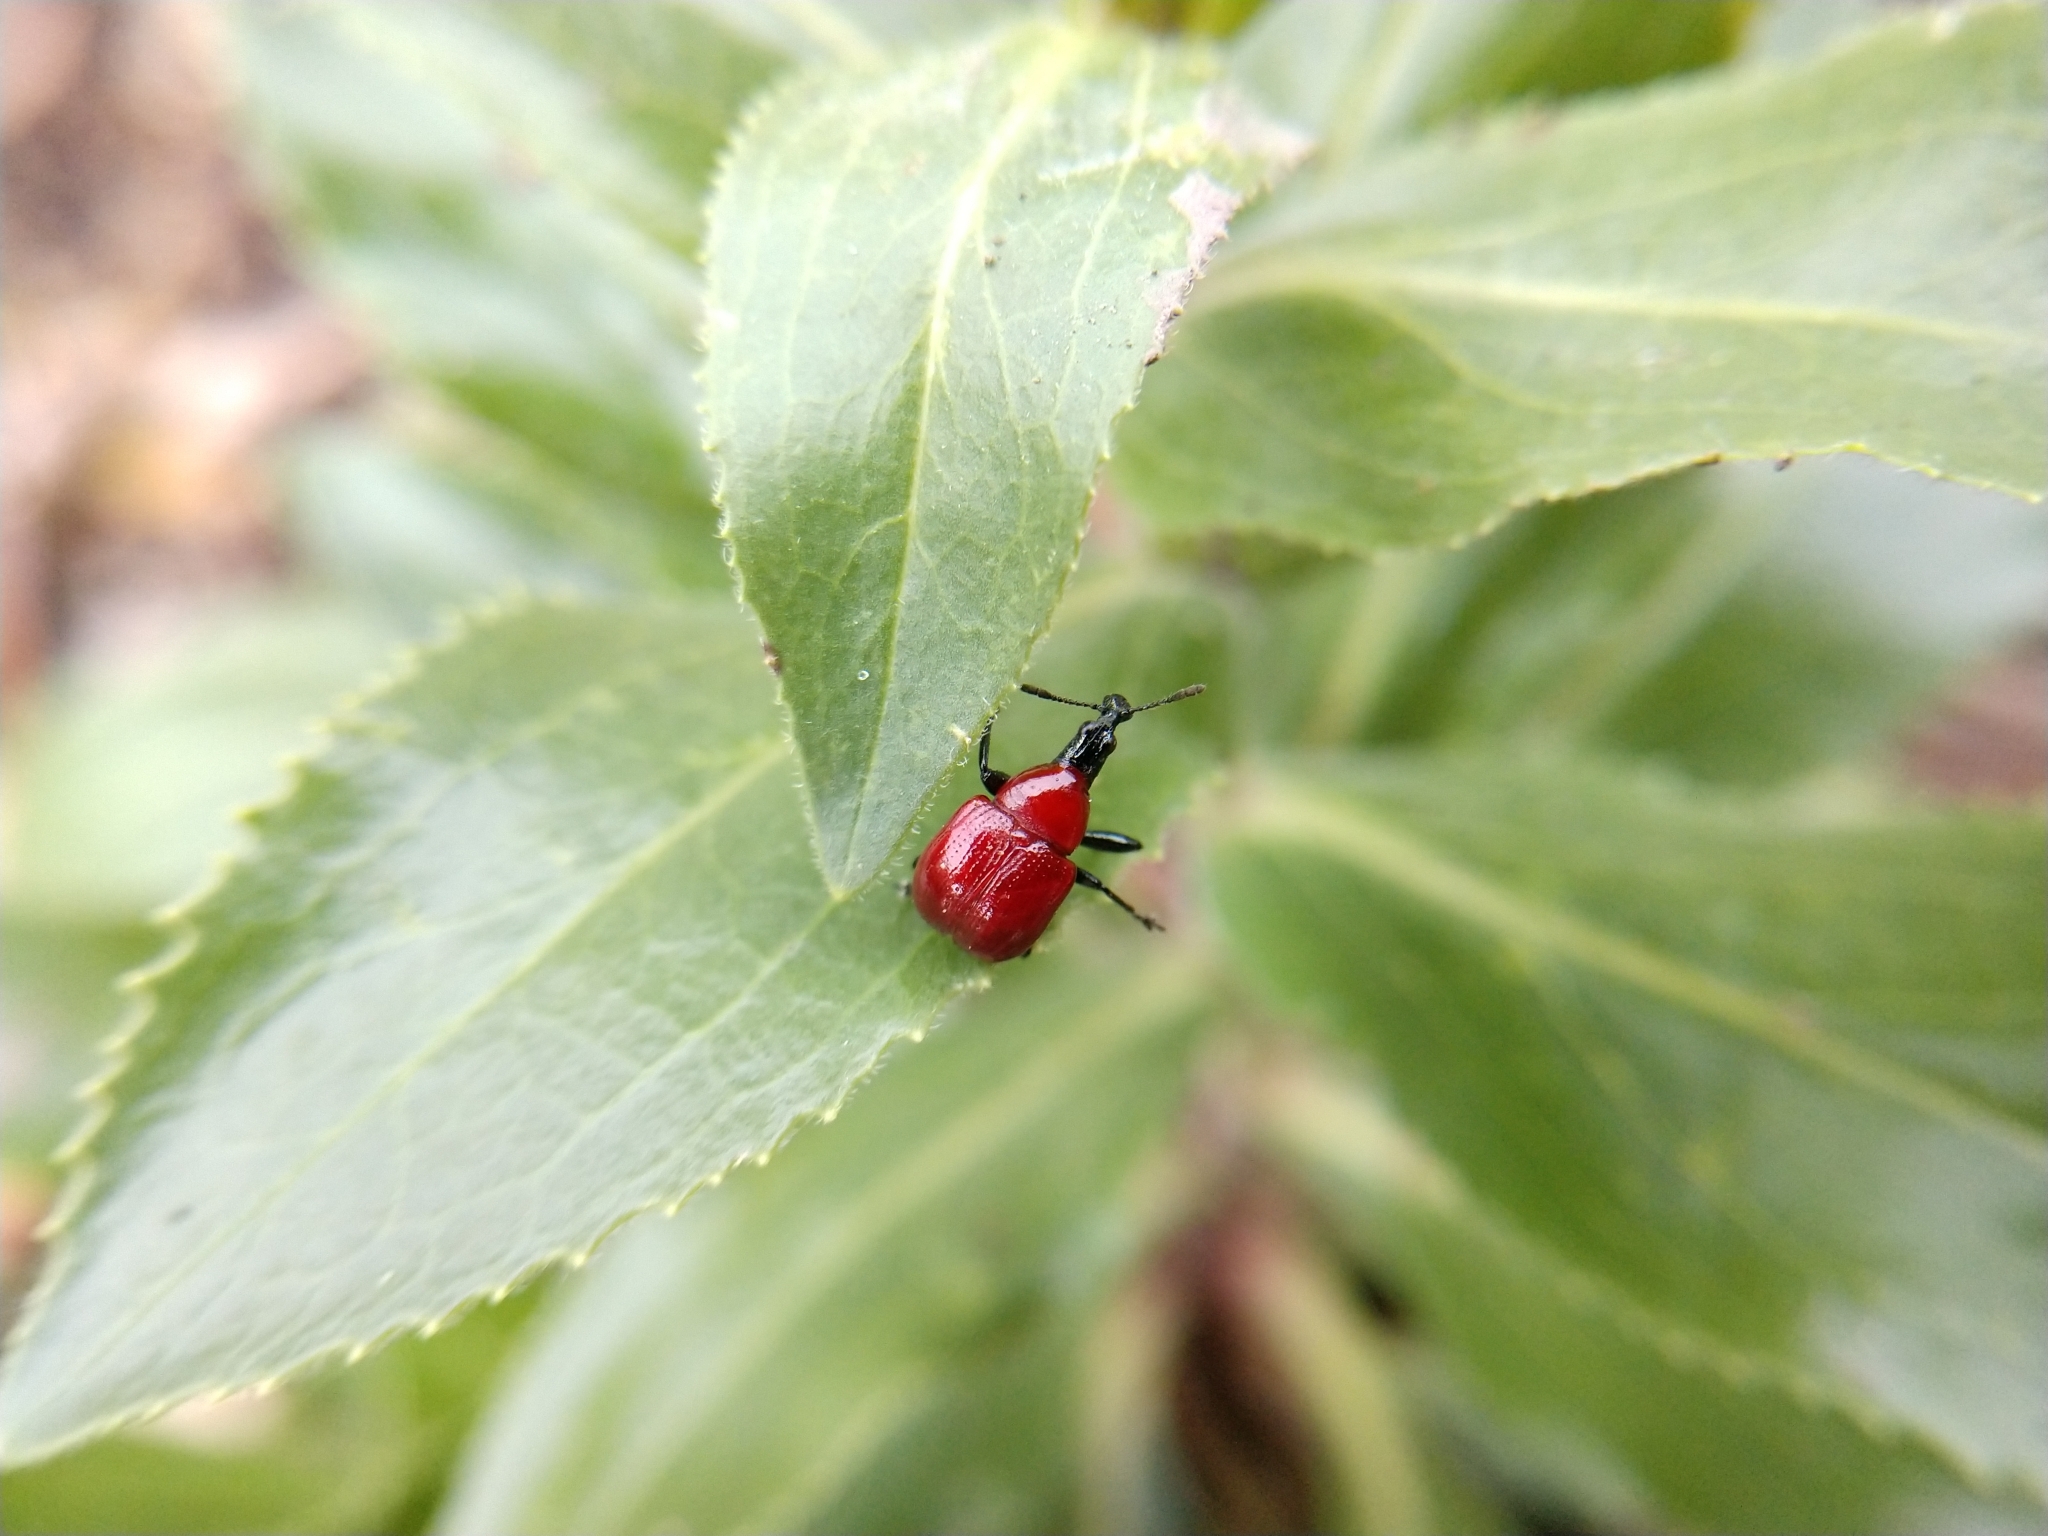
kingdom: Animalia
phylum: Arthropoda
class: Insecta
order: Coleoptera
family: Attelabidae
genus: Homoeolabus
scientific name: Homoeolabus analis
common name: Oak leaf rolling weevil
